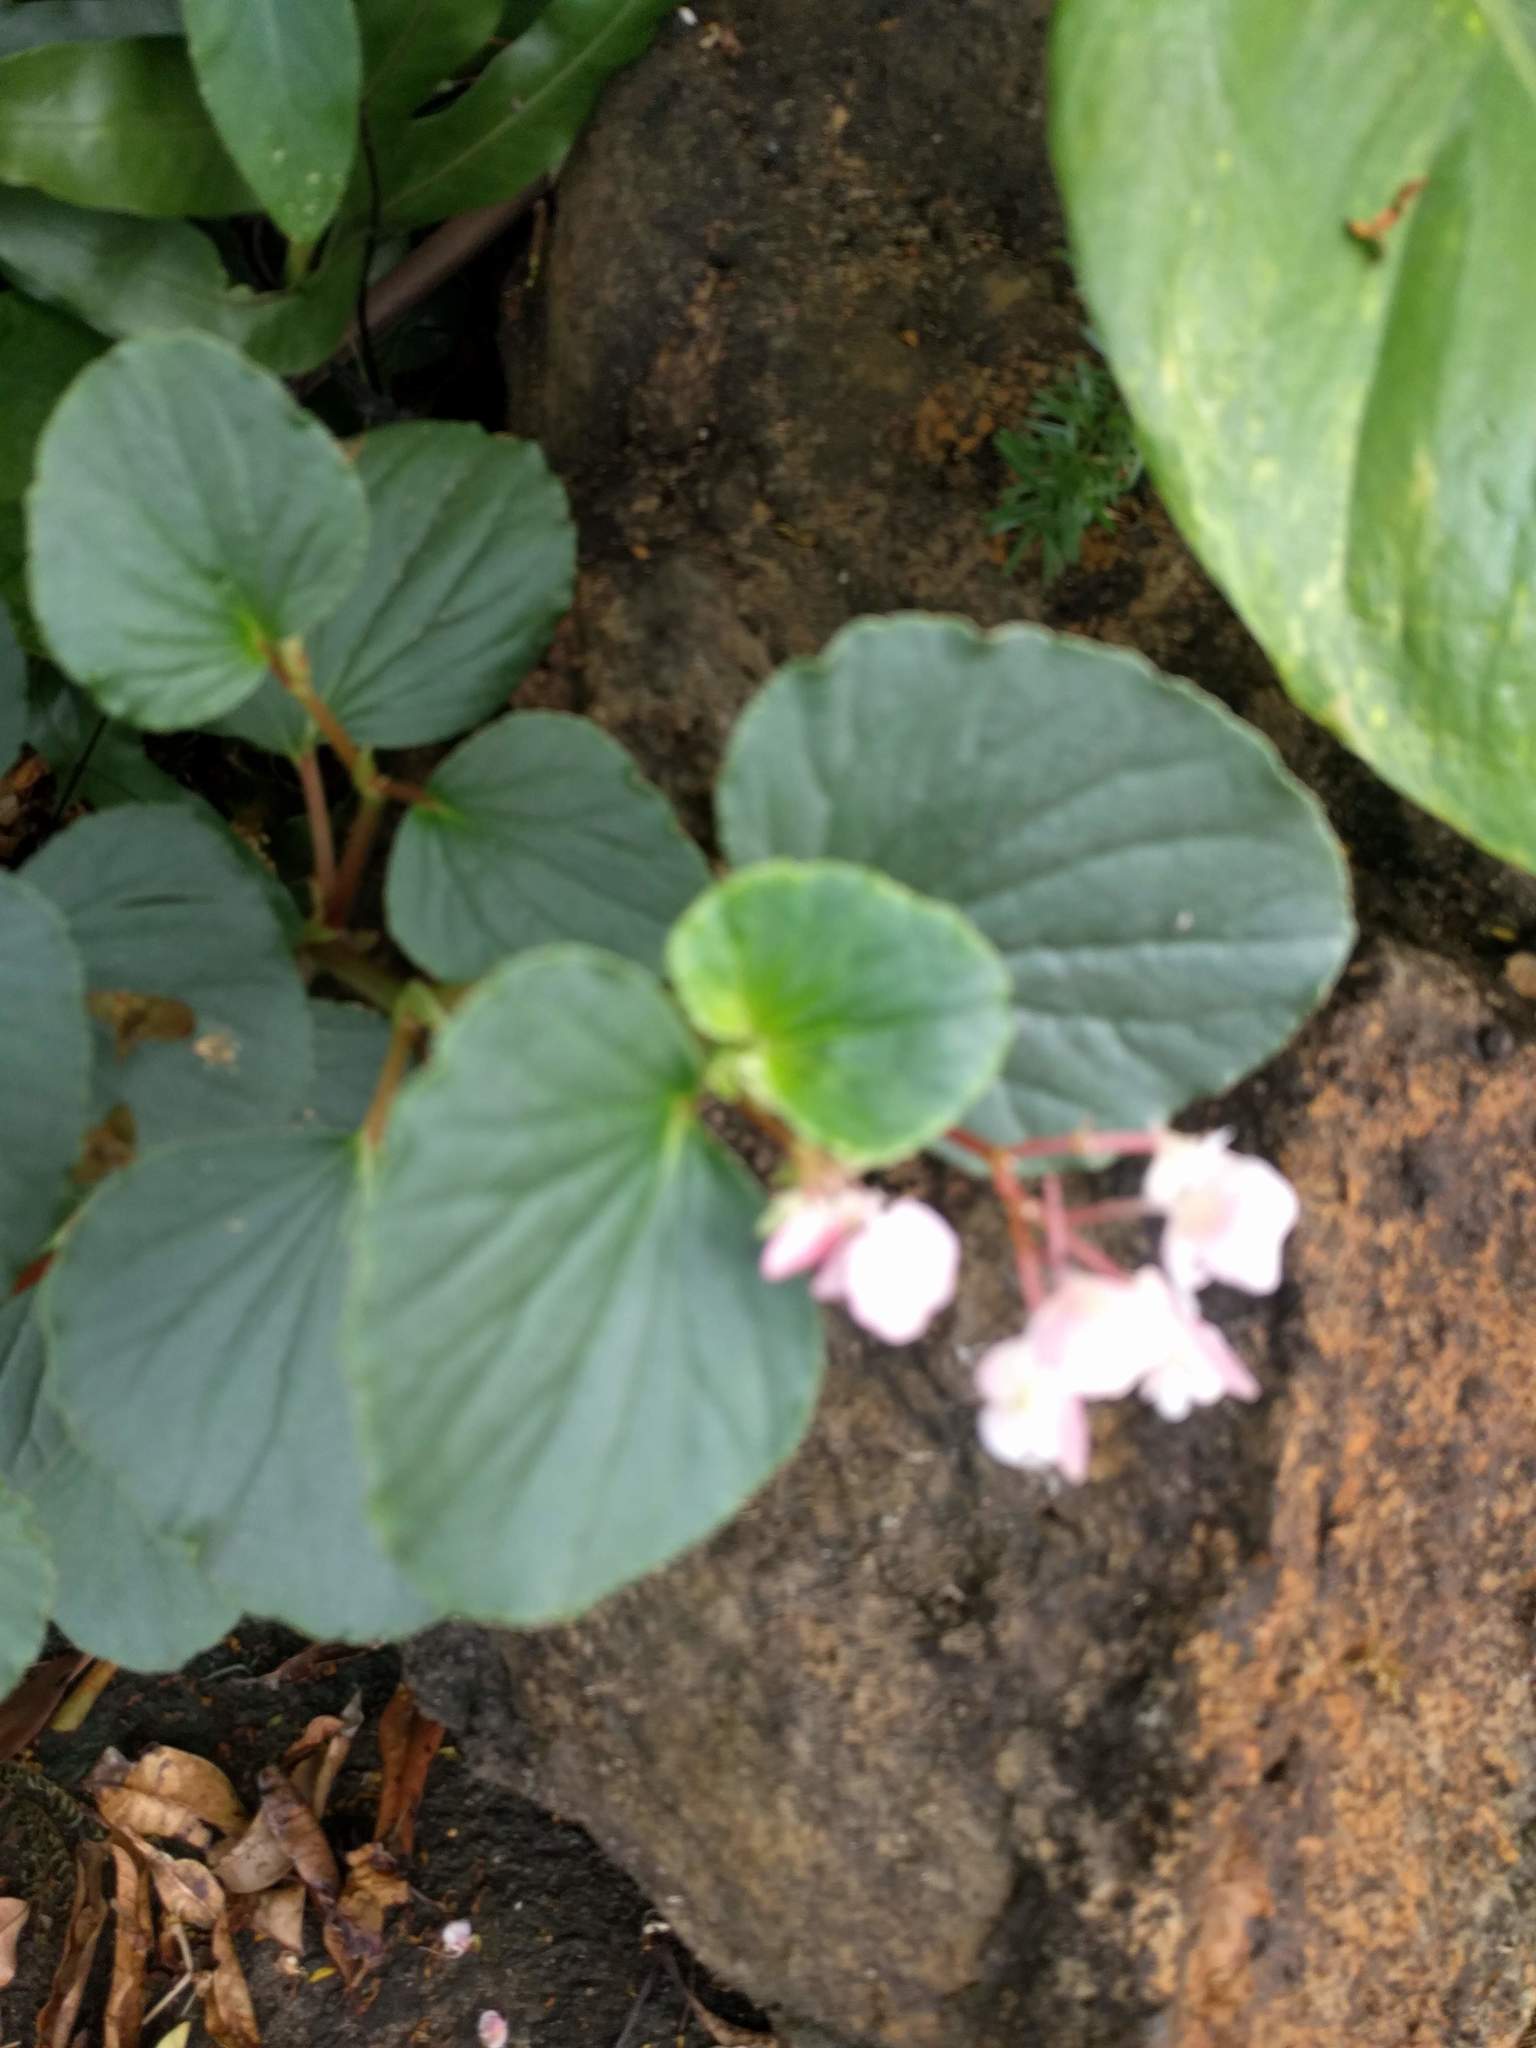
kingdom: Plantae
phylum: Tracheophyta
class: Magnoliopsida
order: Cucurbitales
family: Begoniaceae
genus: Begonia
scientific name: Begonia cucullata
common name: Clubbed begonia
